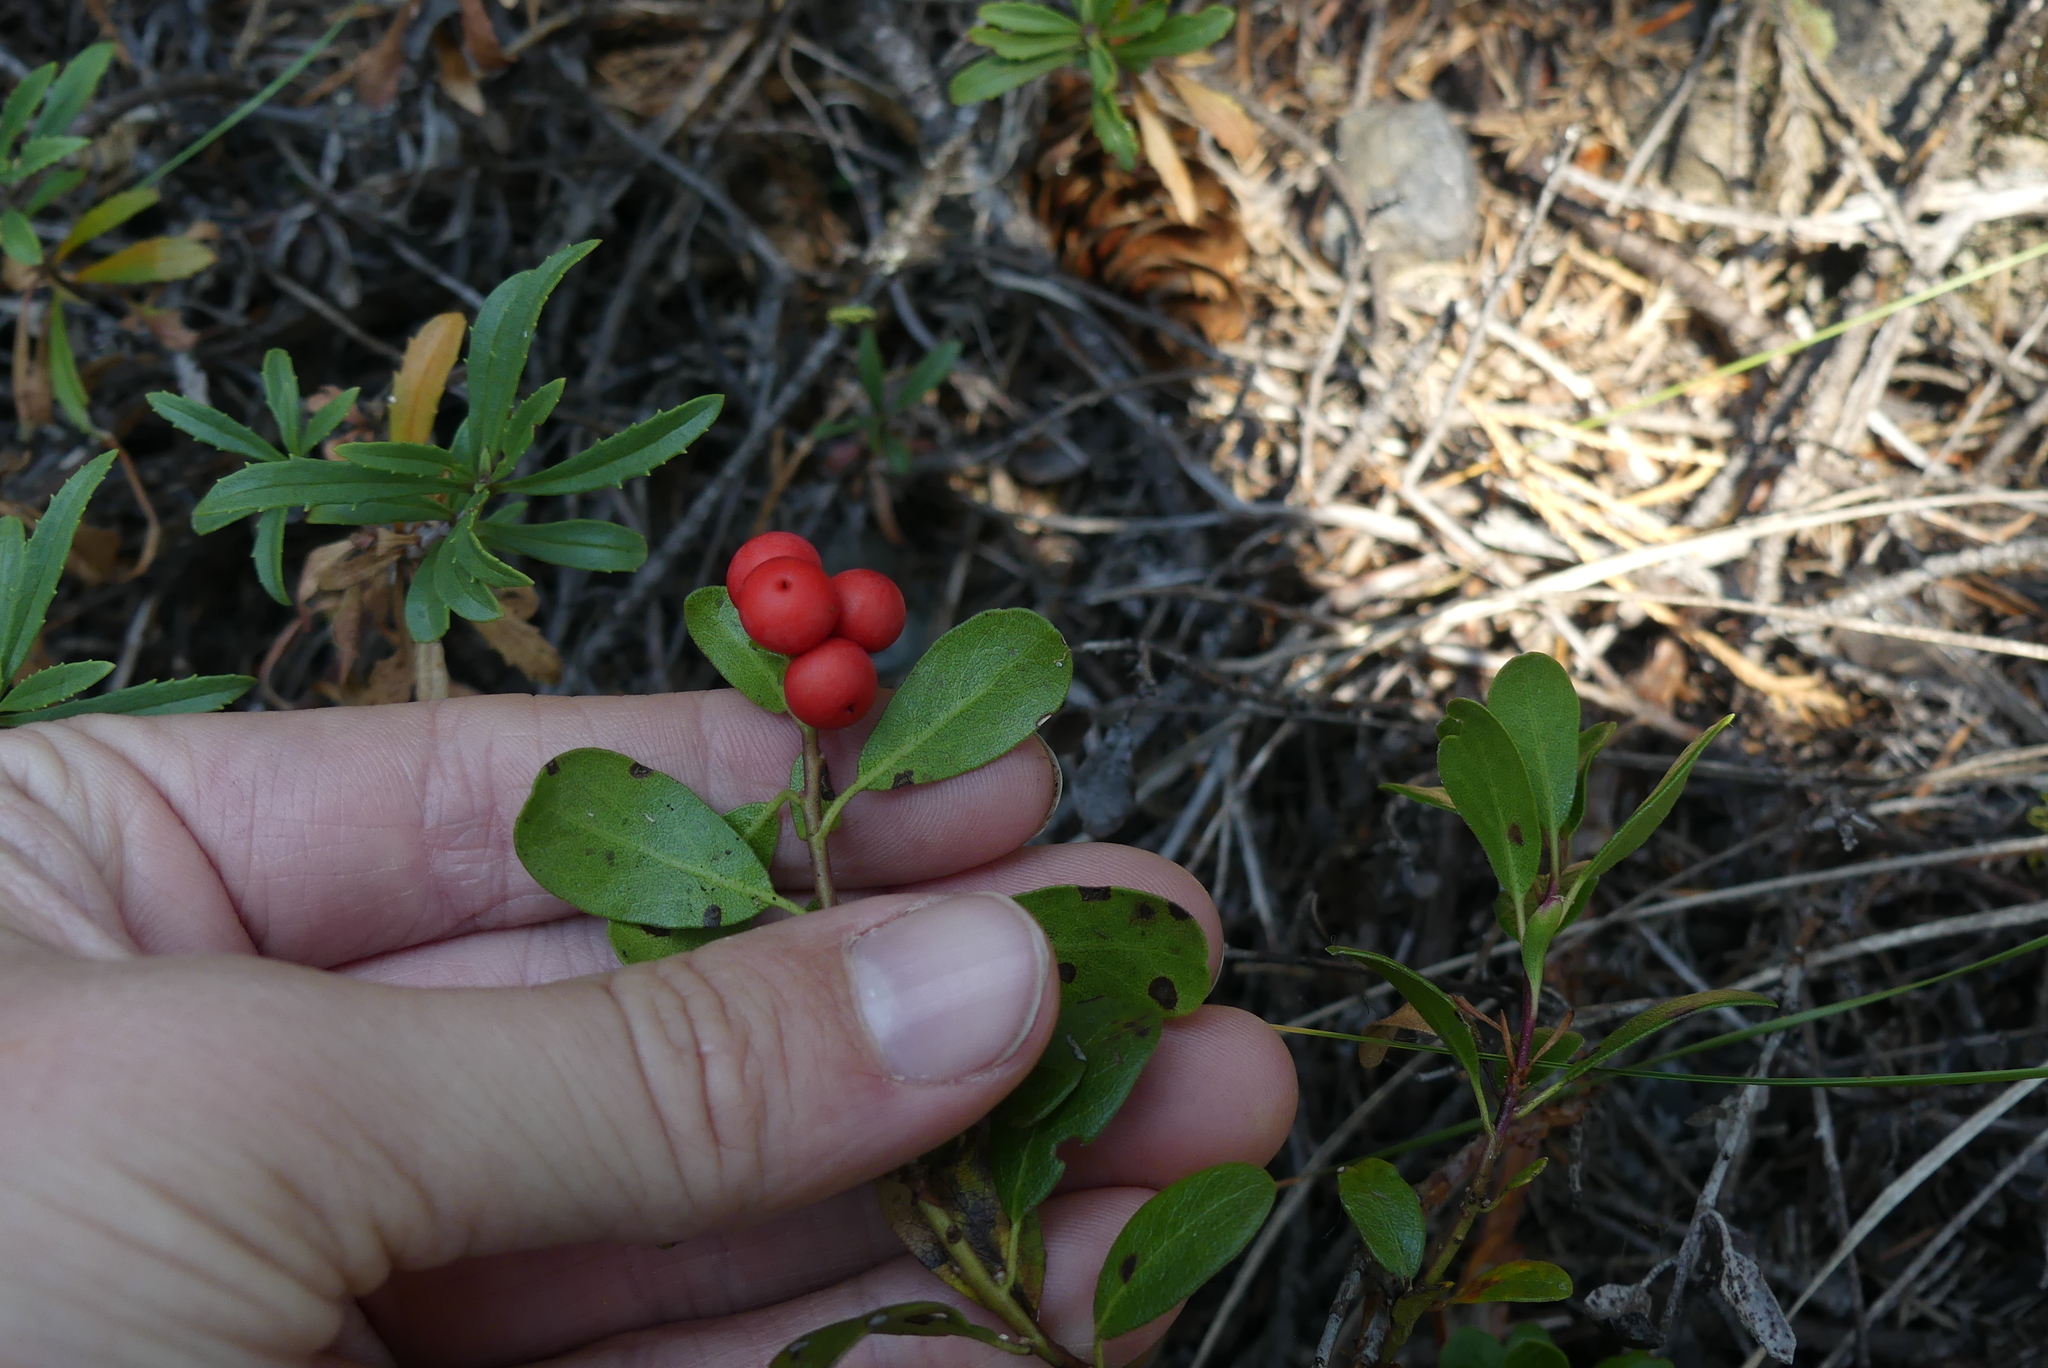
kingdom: Plantae
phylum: Tracheophyta
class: Magnoliopsida
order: Ericales
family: Ericaceae
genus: Arctostaphylos
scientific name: Arctostaphylos uva-ursi
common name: Bearberry
